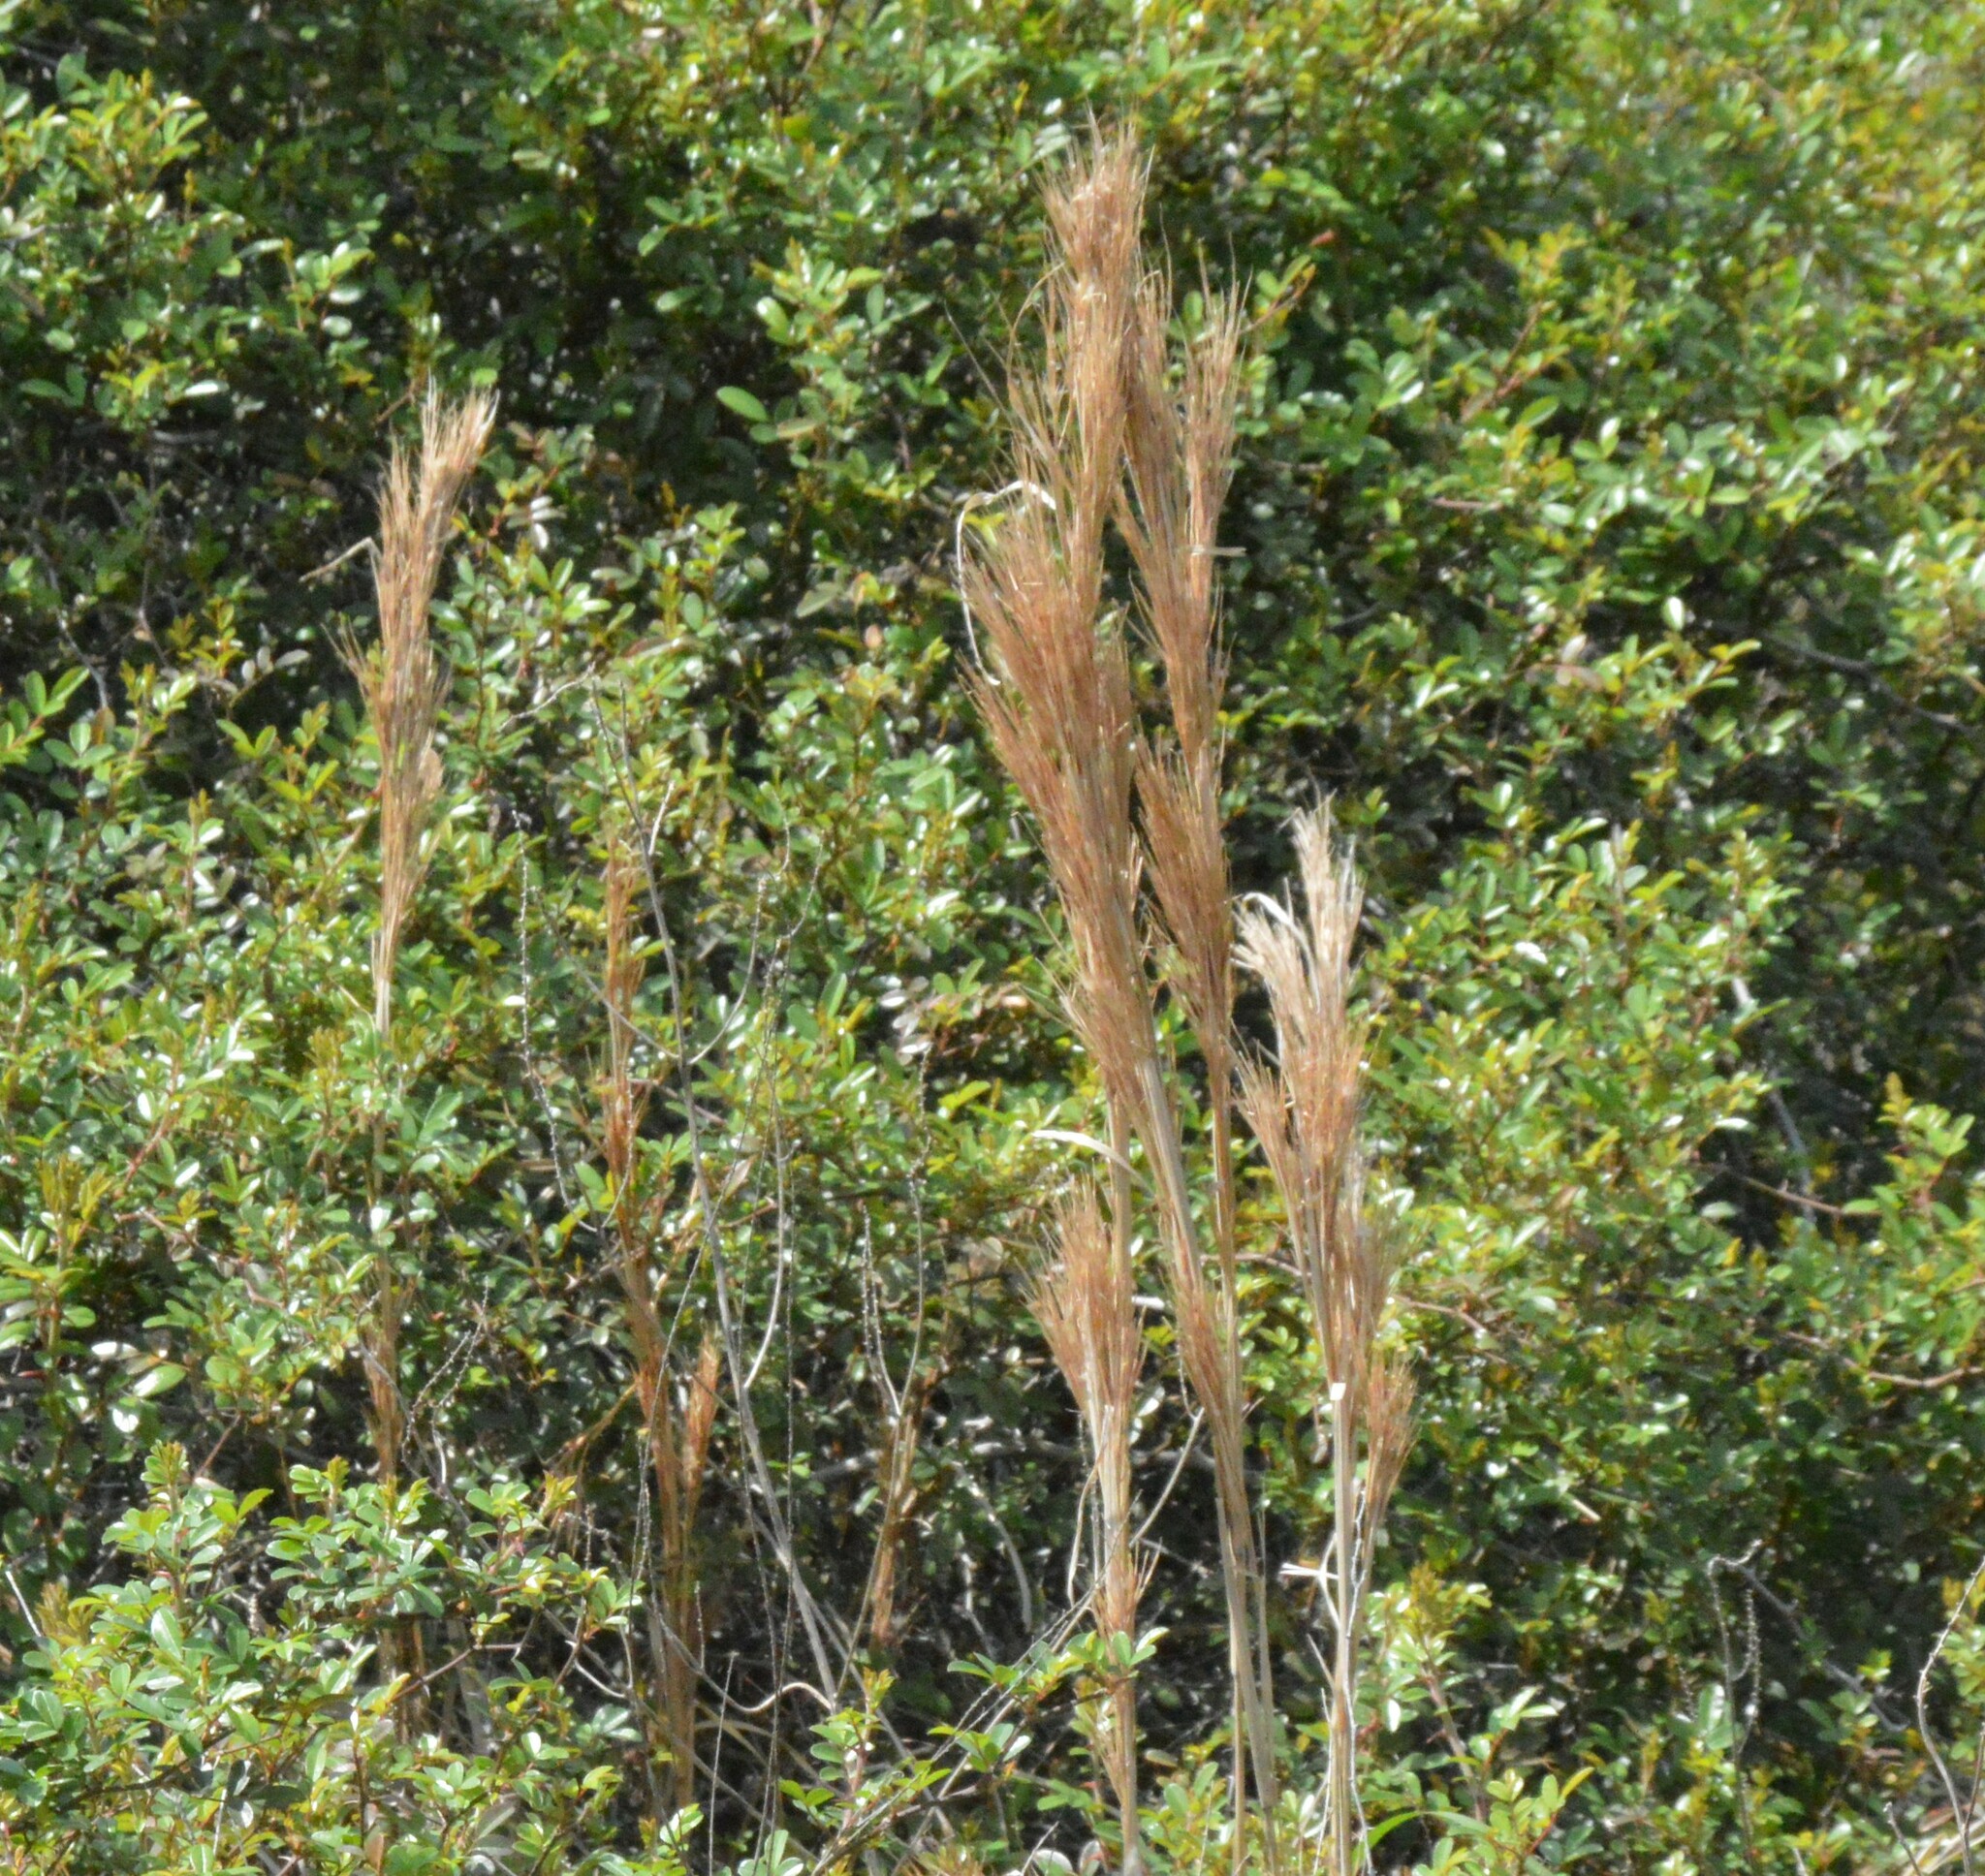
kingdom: Plantae
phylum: Tracheophyta
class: Liliopsida
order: Poales
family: Poaceae
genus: Andropogon
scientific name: Andropogon tenuispatheus
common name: Bushy bluestem
